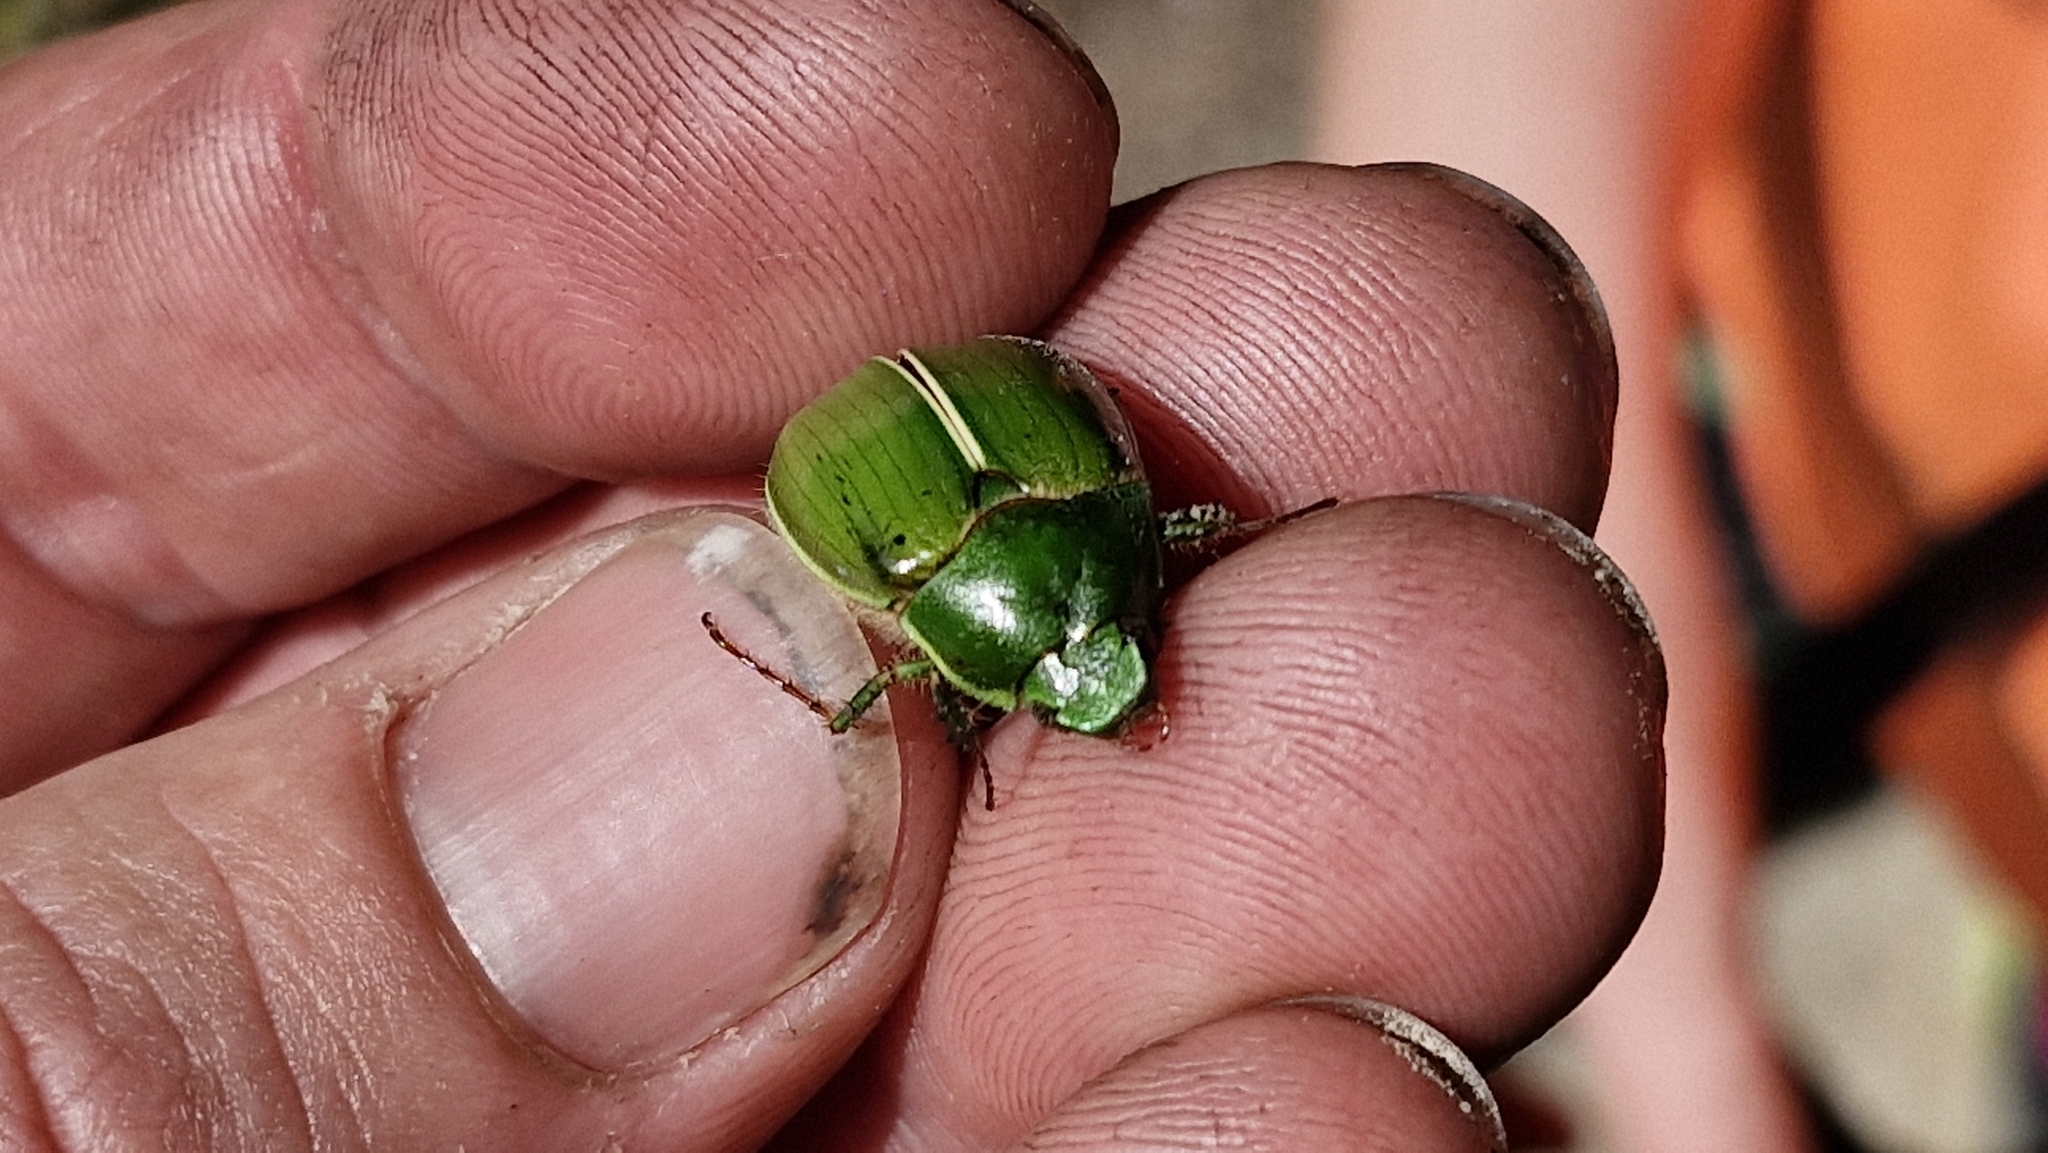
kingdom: Animalia
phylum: Arthropoda
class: Insecta
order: Coleoptera
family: Scarabaeidae
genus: Stethaspis
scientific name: Stethaspis suturalis
